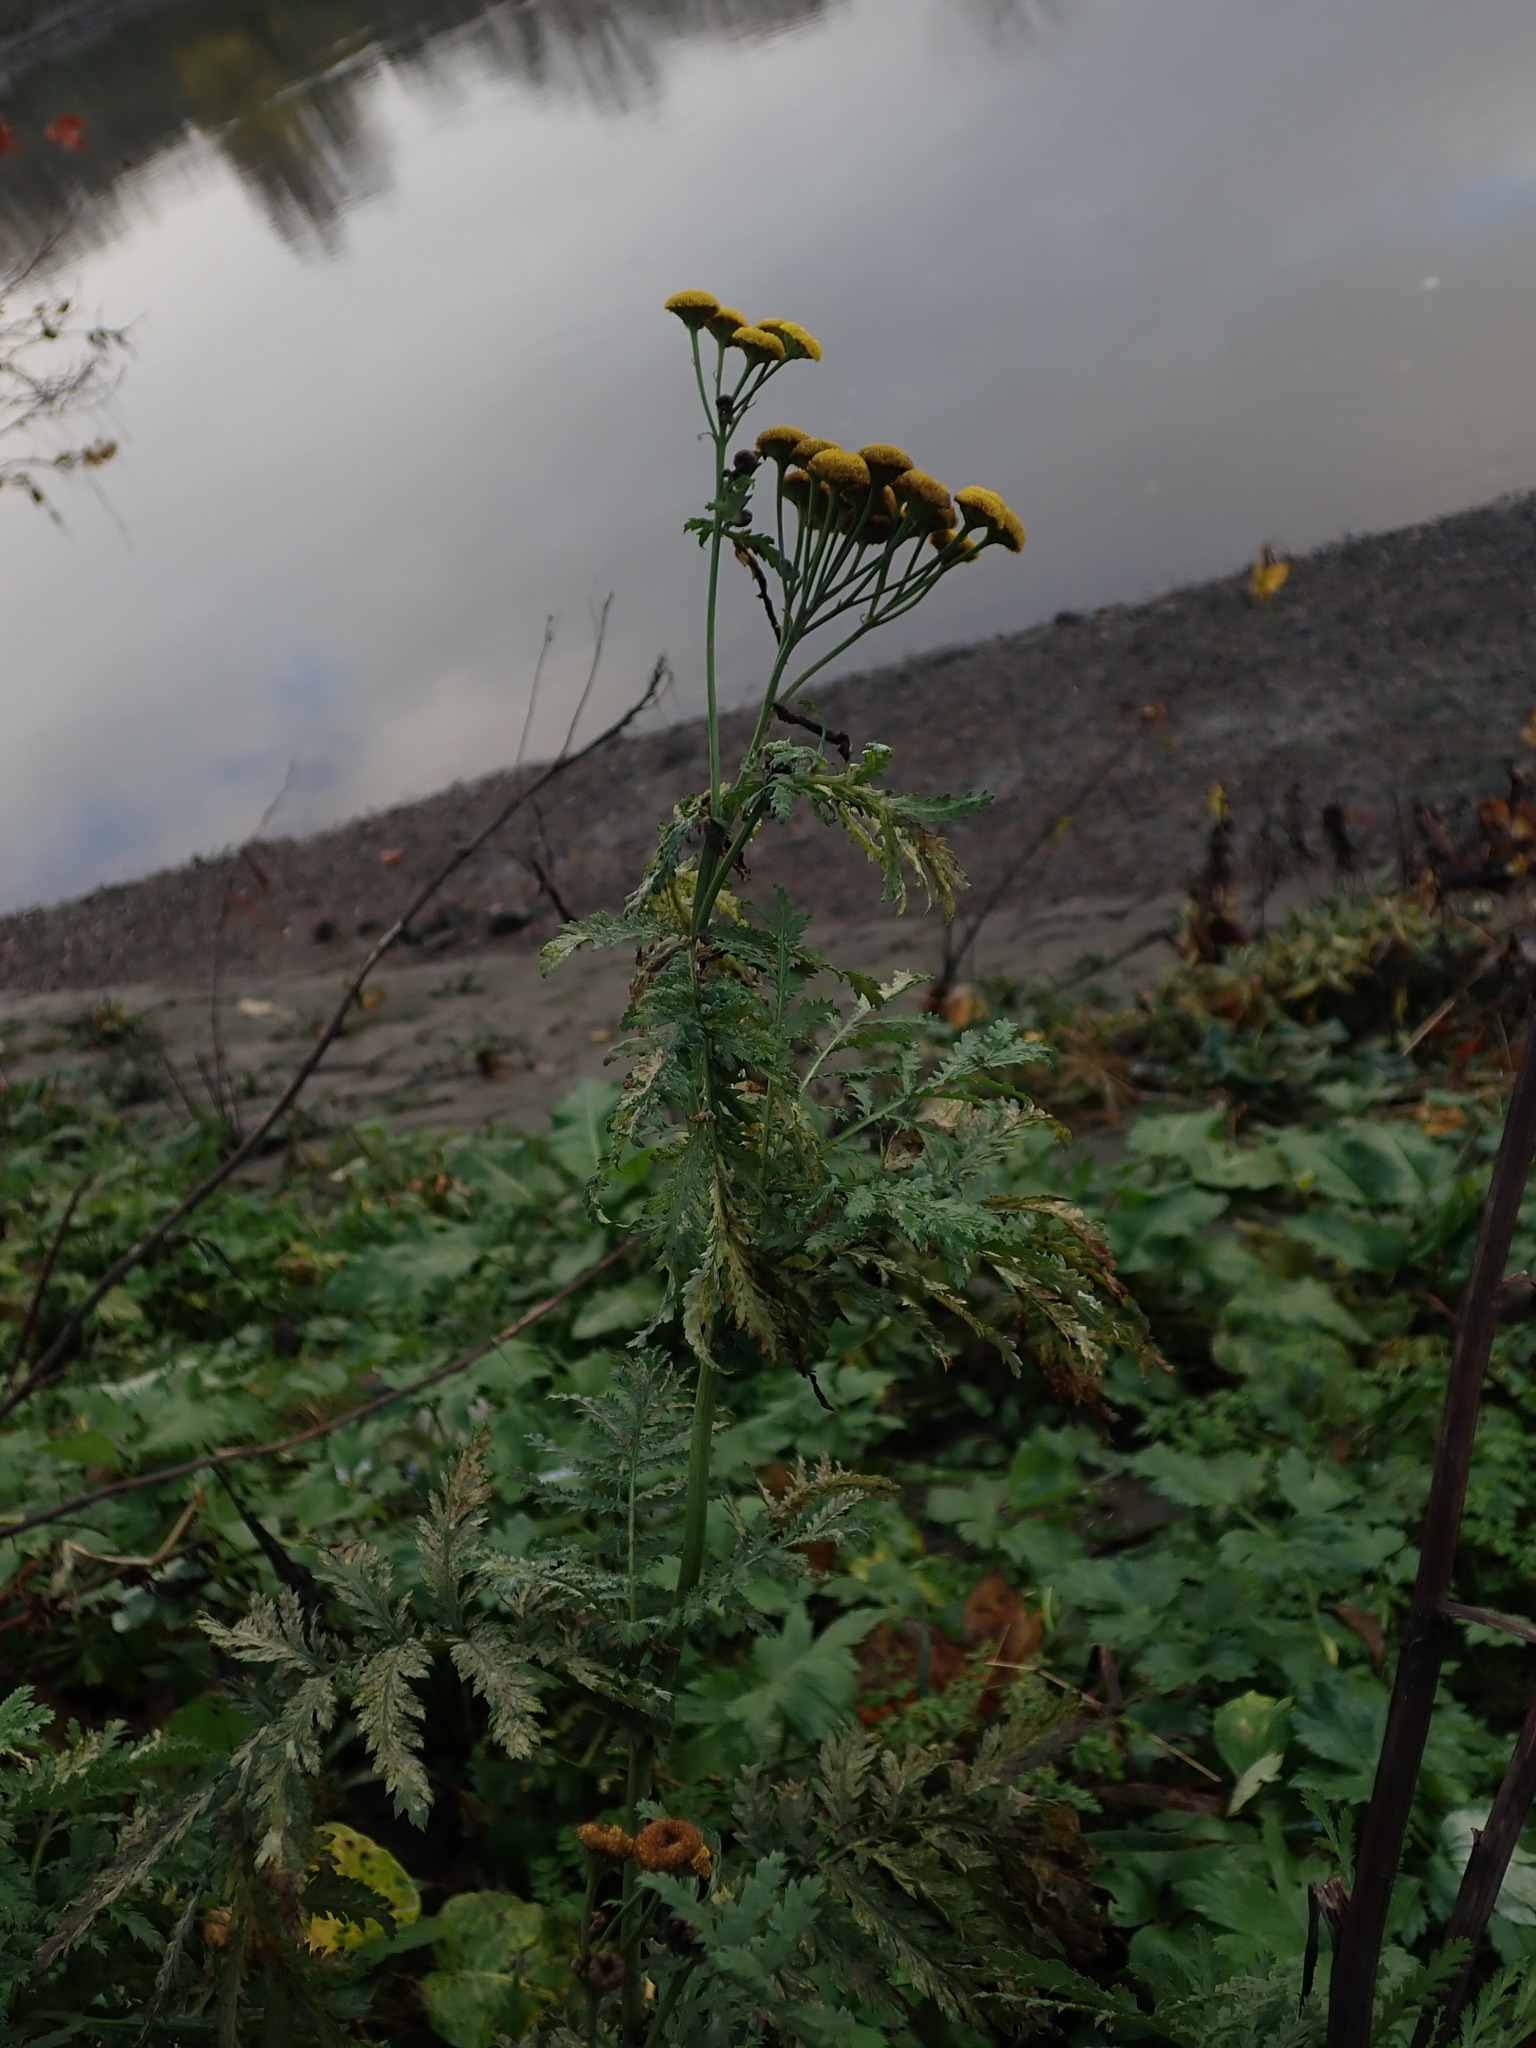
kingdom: Plantae
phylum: Tracheophyta
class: Magnoliopsida
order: Asterales
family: Asteraceae
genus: Tanacetum
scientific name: Tanacetum vulgare
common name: Common tansy
